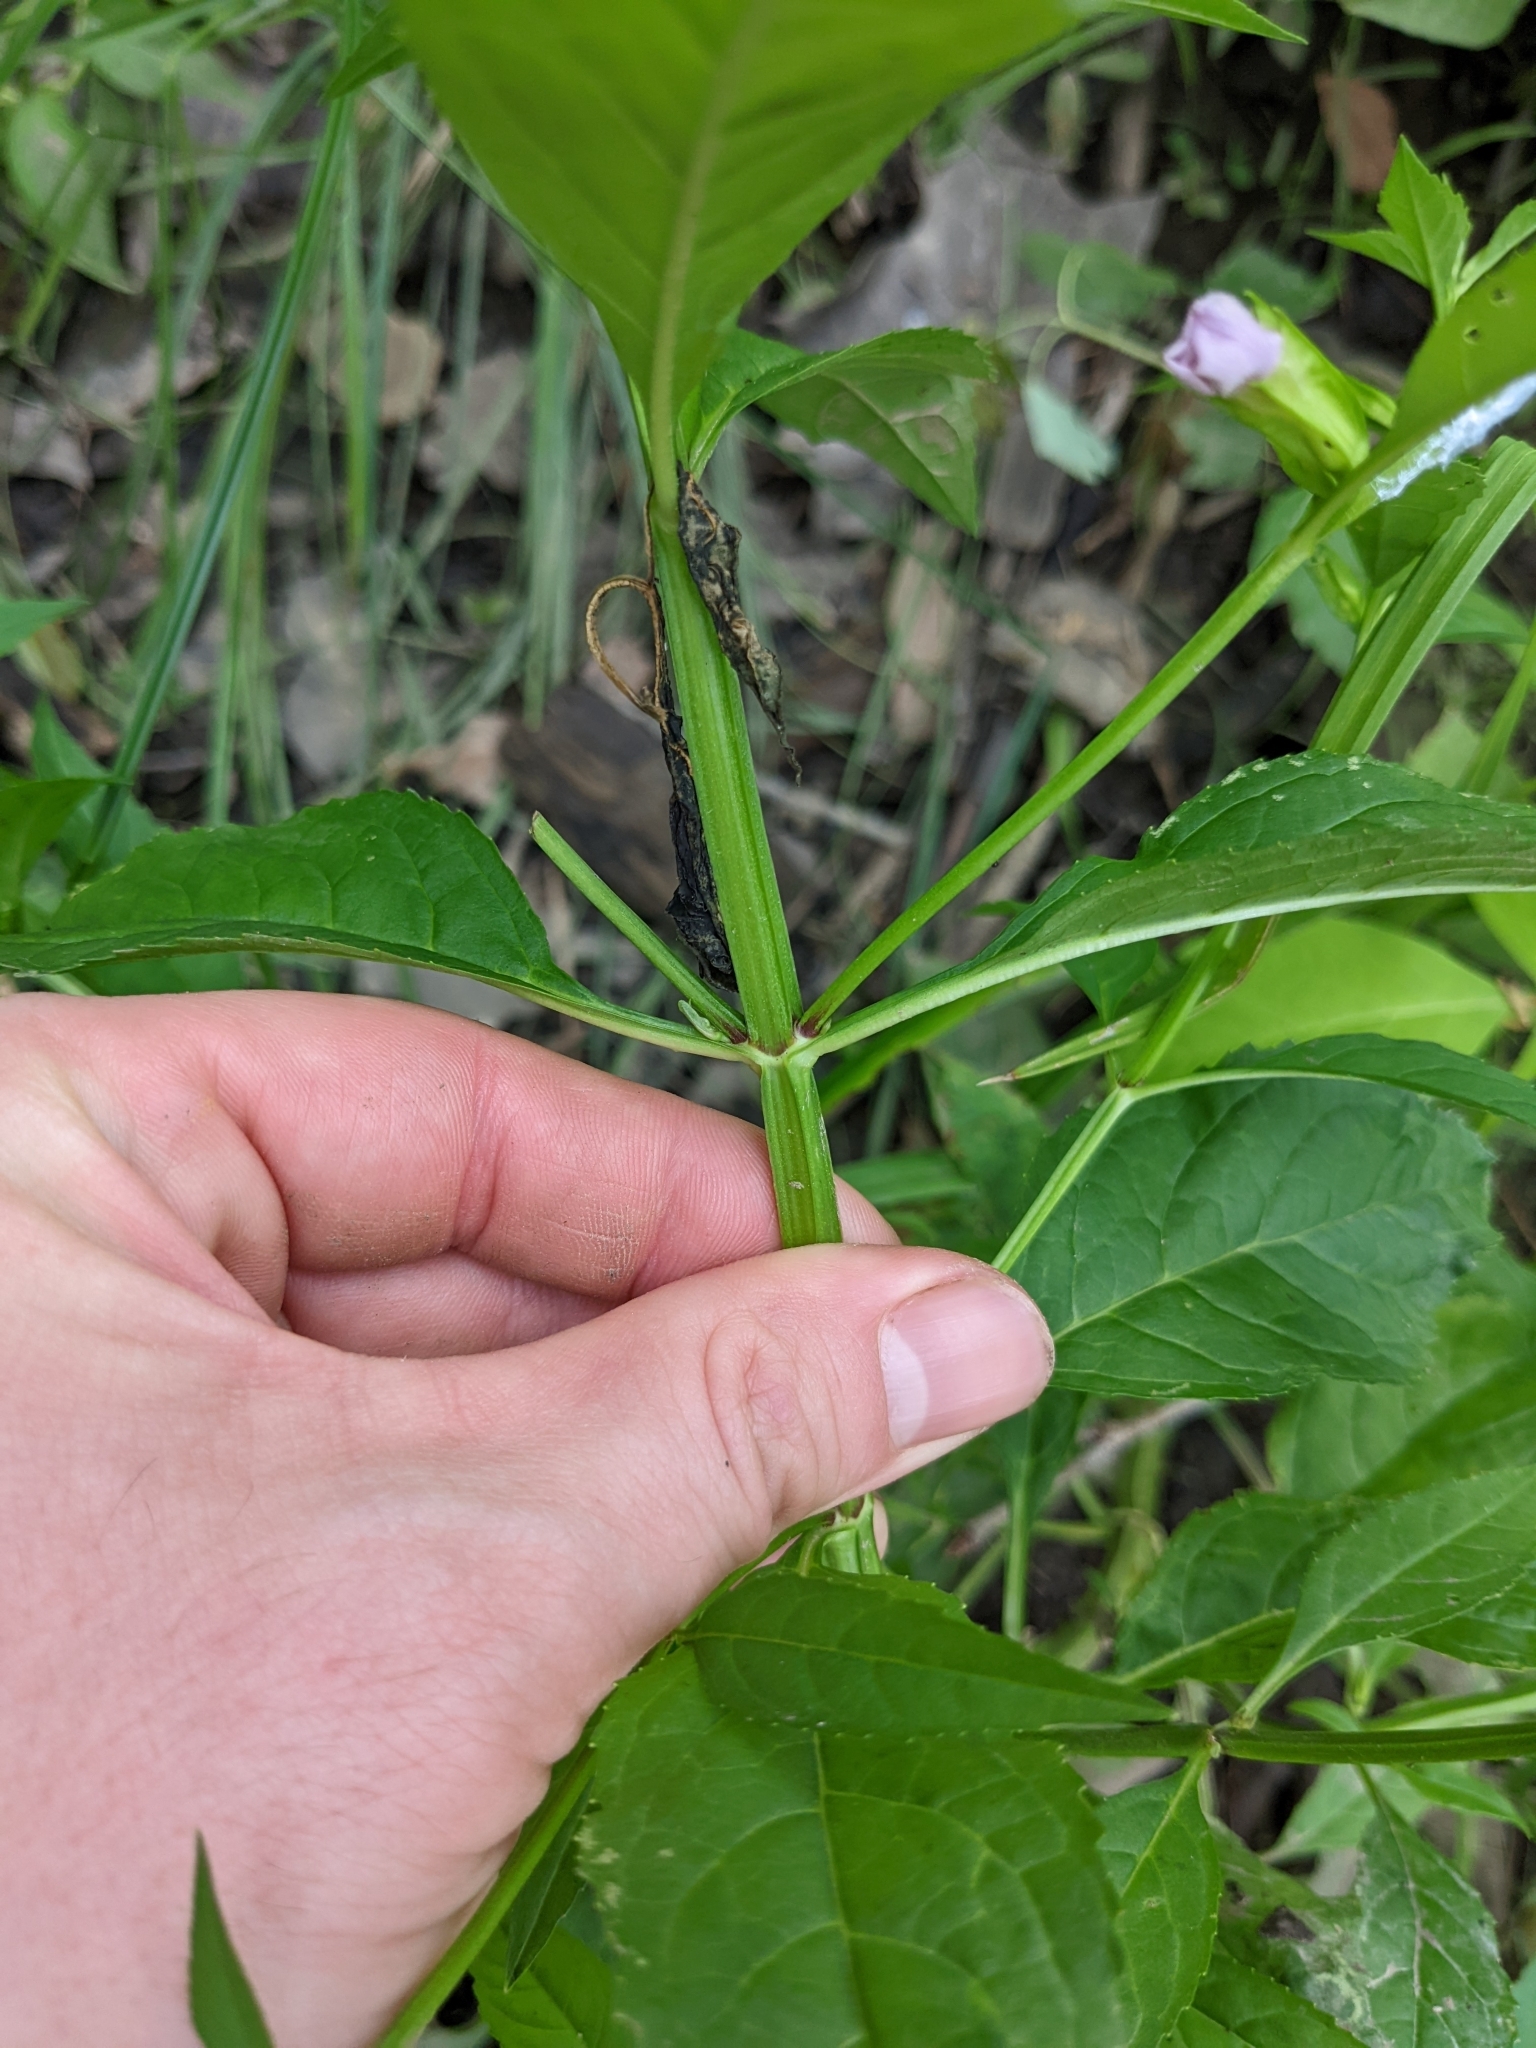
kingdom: Plantae
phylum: Tracheophyta
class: Magnoliopsida
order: Lamiales
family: Phrymaceae
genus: Mimulus
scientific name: Mimulus alatus
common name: Sharp-wing monkey-flower
